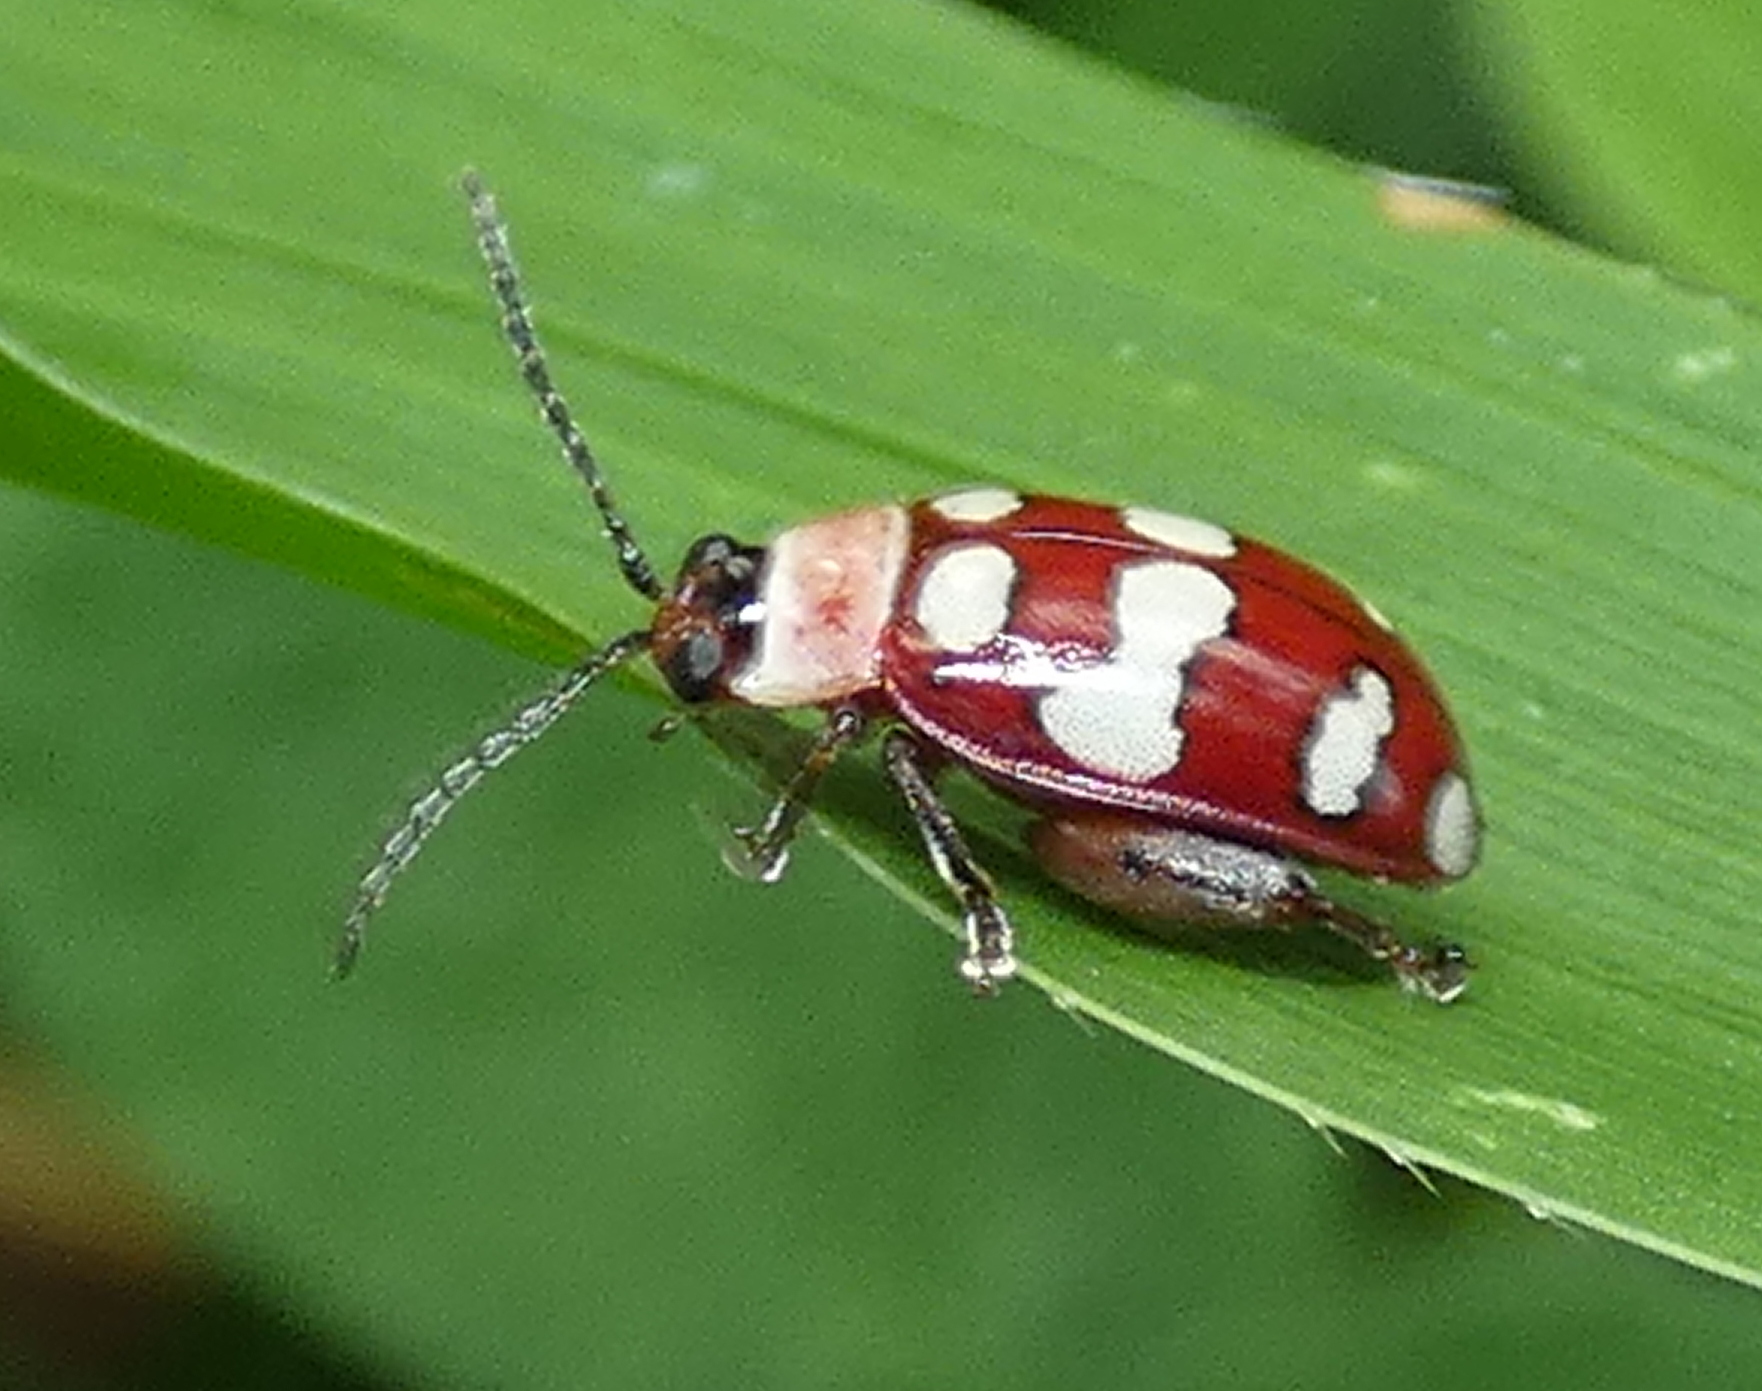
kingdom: Animalia
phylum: Arthropoda
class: Insecta
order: Coleoptera
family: Chrysomelidae
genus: Alagoasa
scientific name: Alagoasa decemguttata
